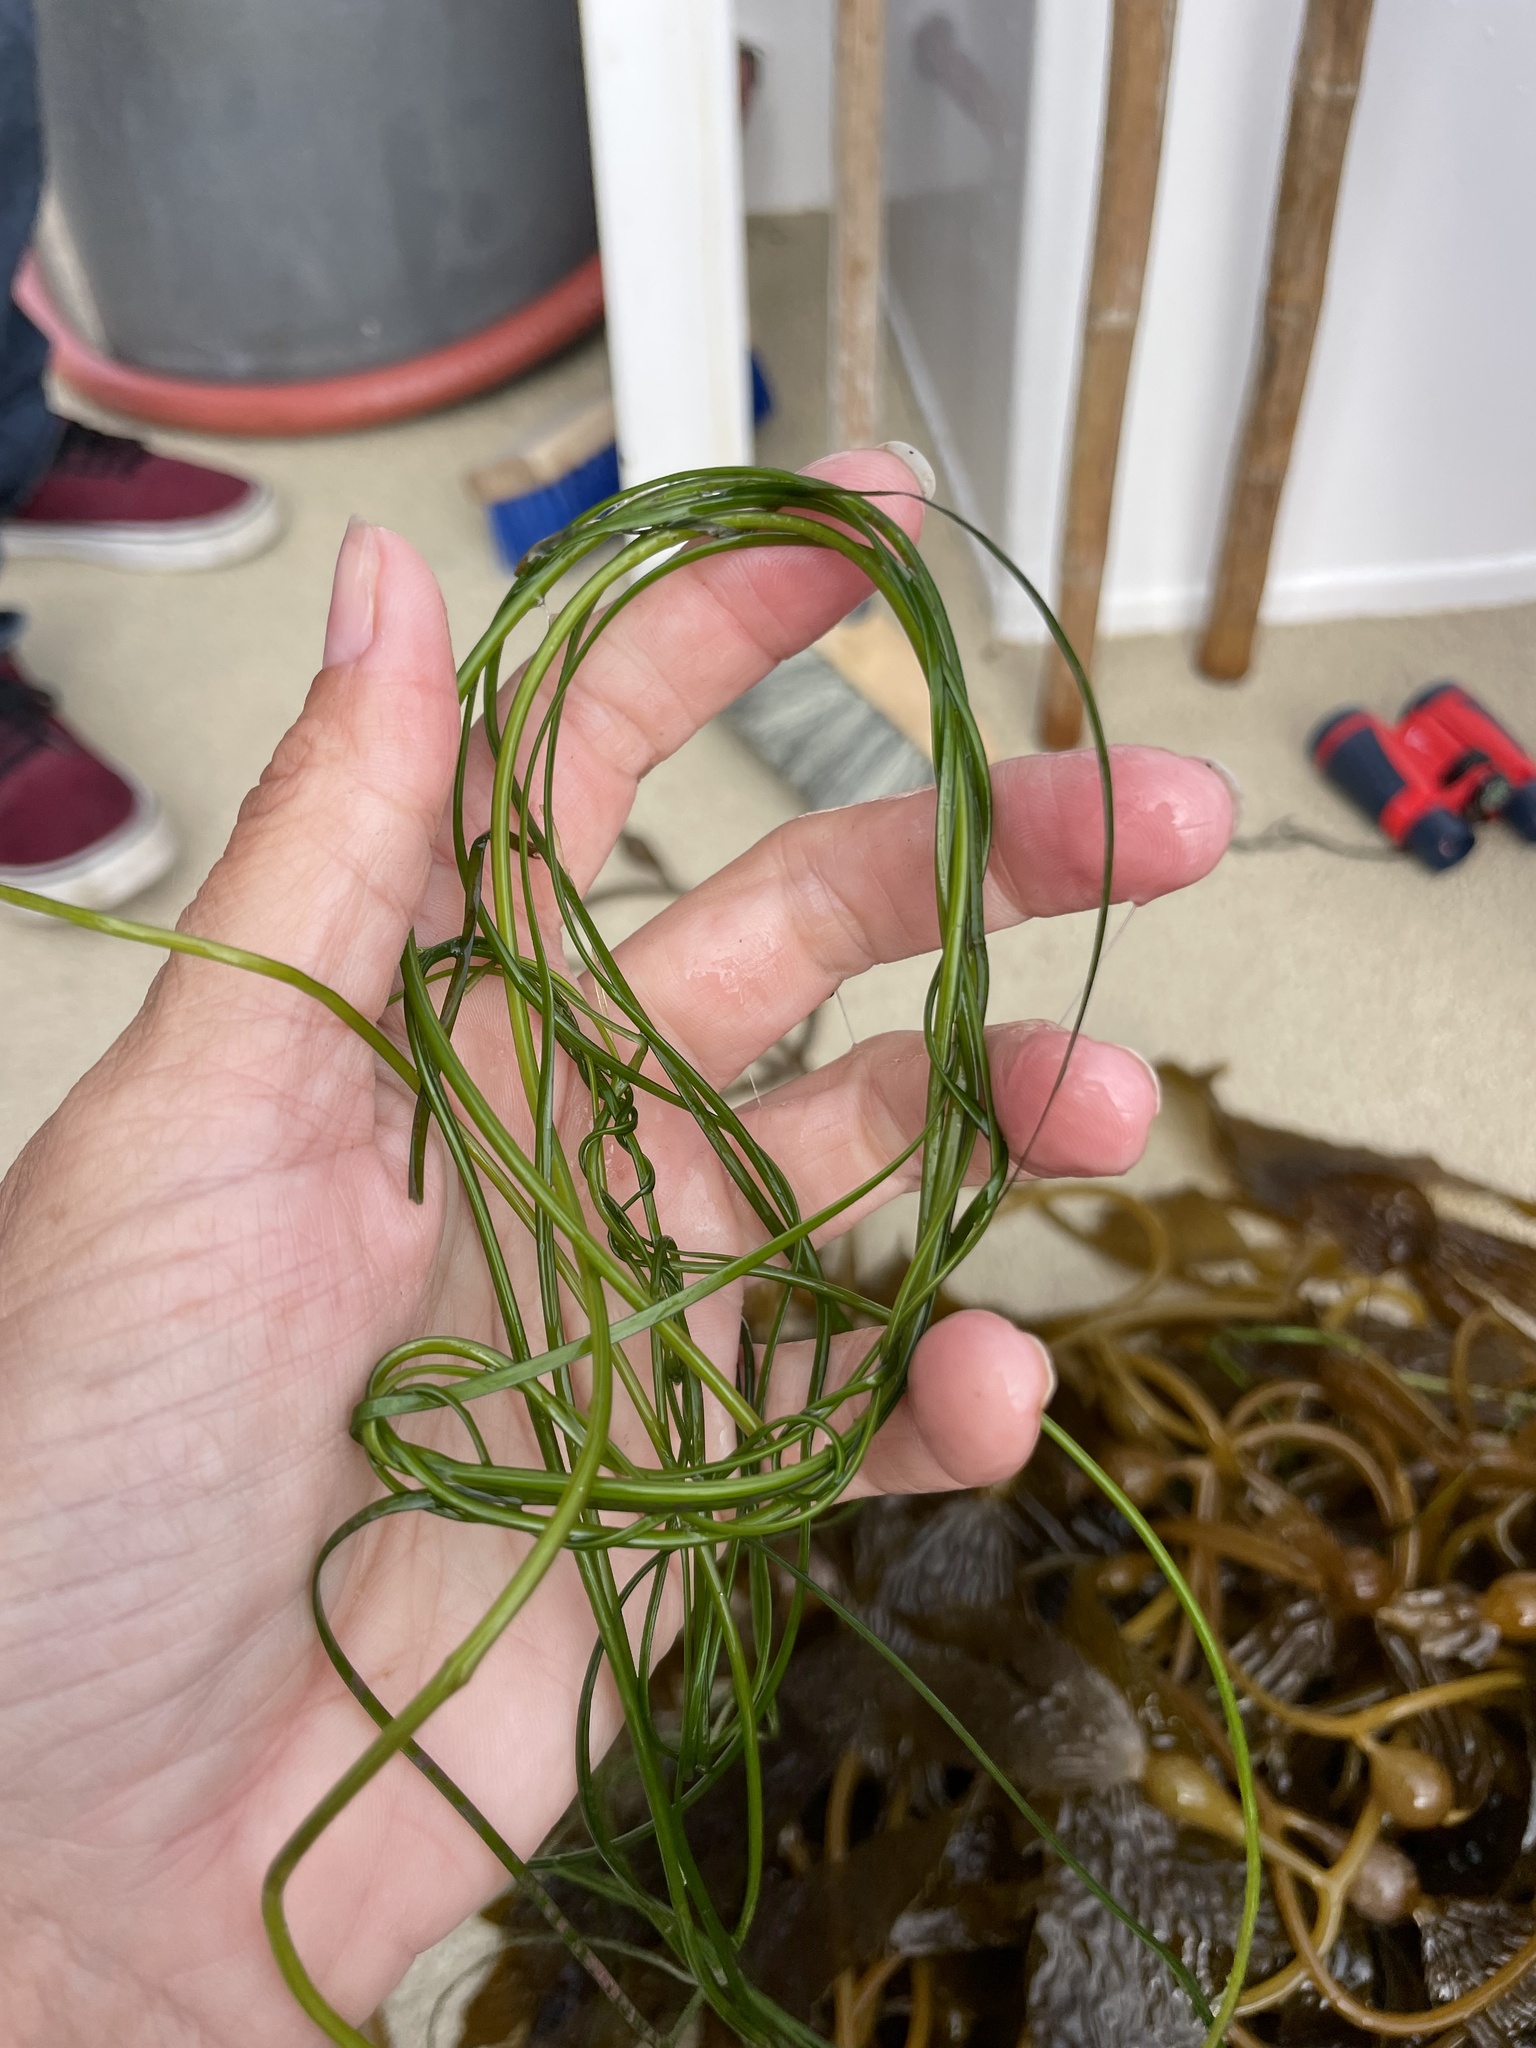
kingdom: Plantae
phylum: Tracheophyta
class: Liliopsida
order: Alismatales
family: Zosteraceae
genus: Phyllospadix
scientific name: Phyllospadix torreyi
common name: Surfgrass
